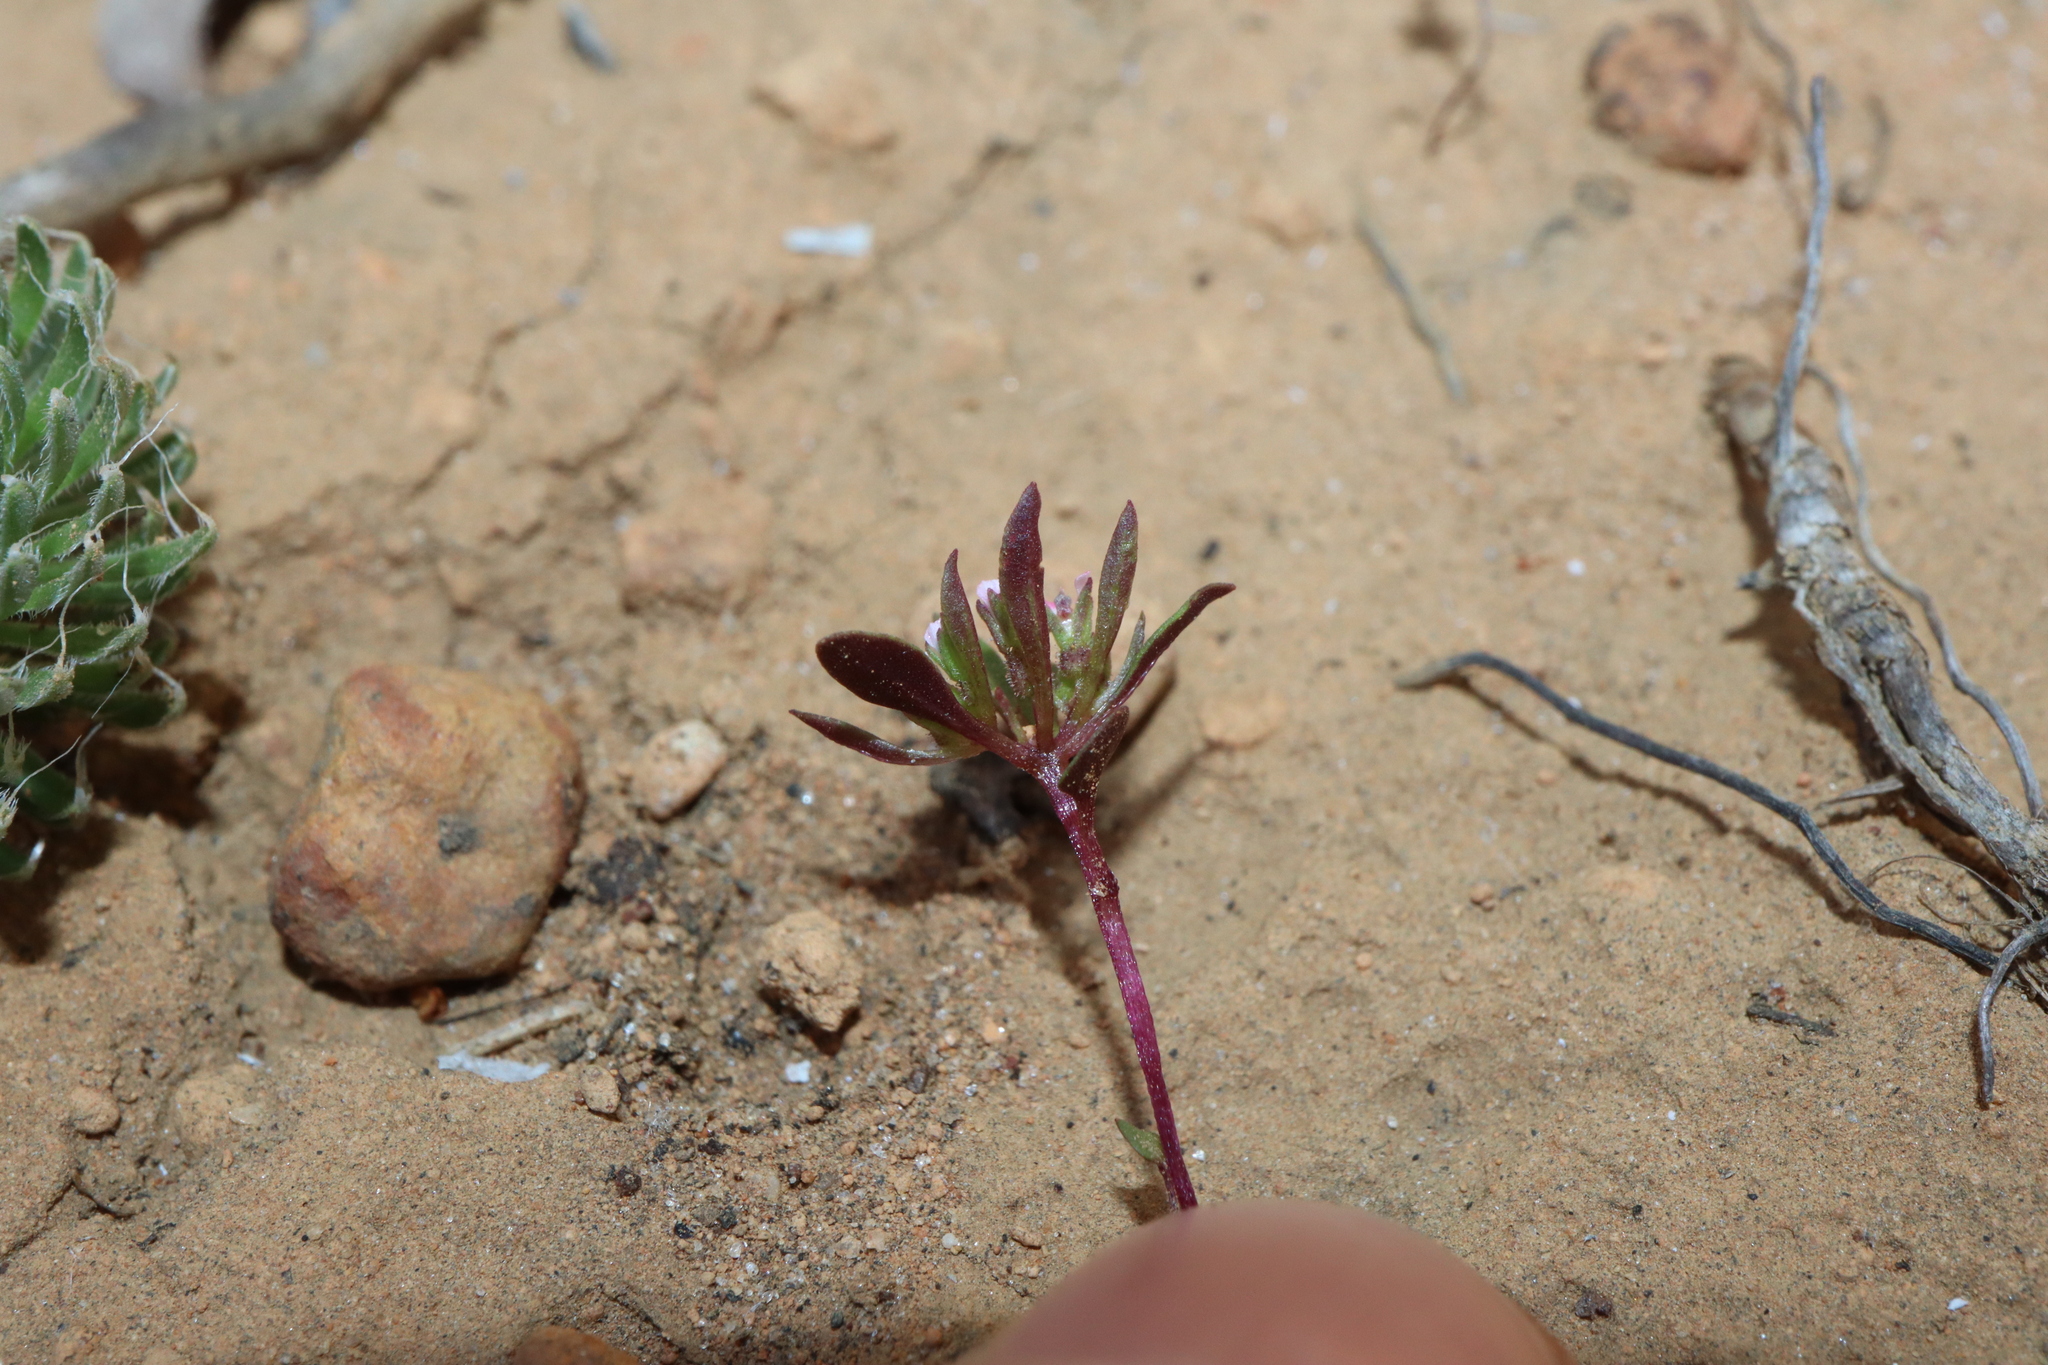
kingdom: Plantae
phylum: Tracheophyta
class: Magnoliopsida
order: Asterales
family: Stylidiaceae
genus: Levenhookia
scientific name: Levenhookia pusilla
